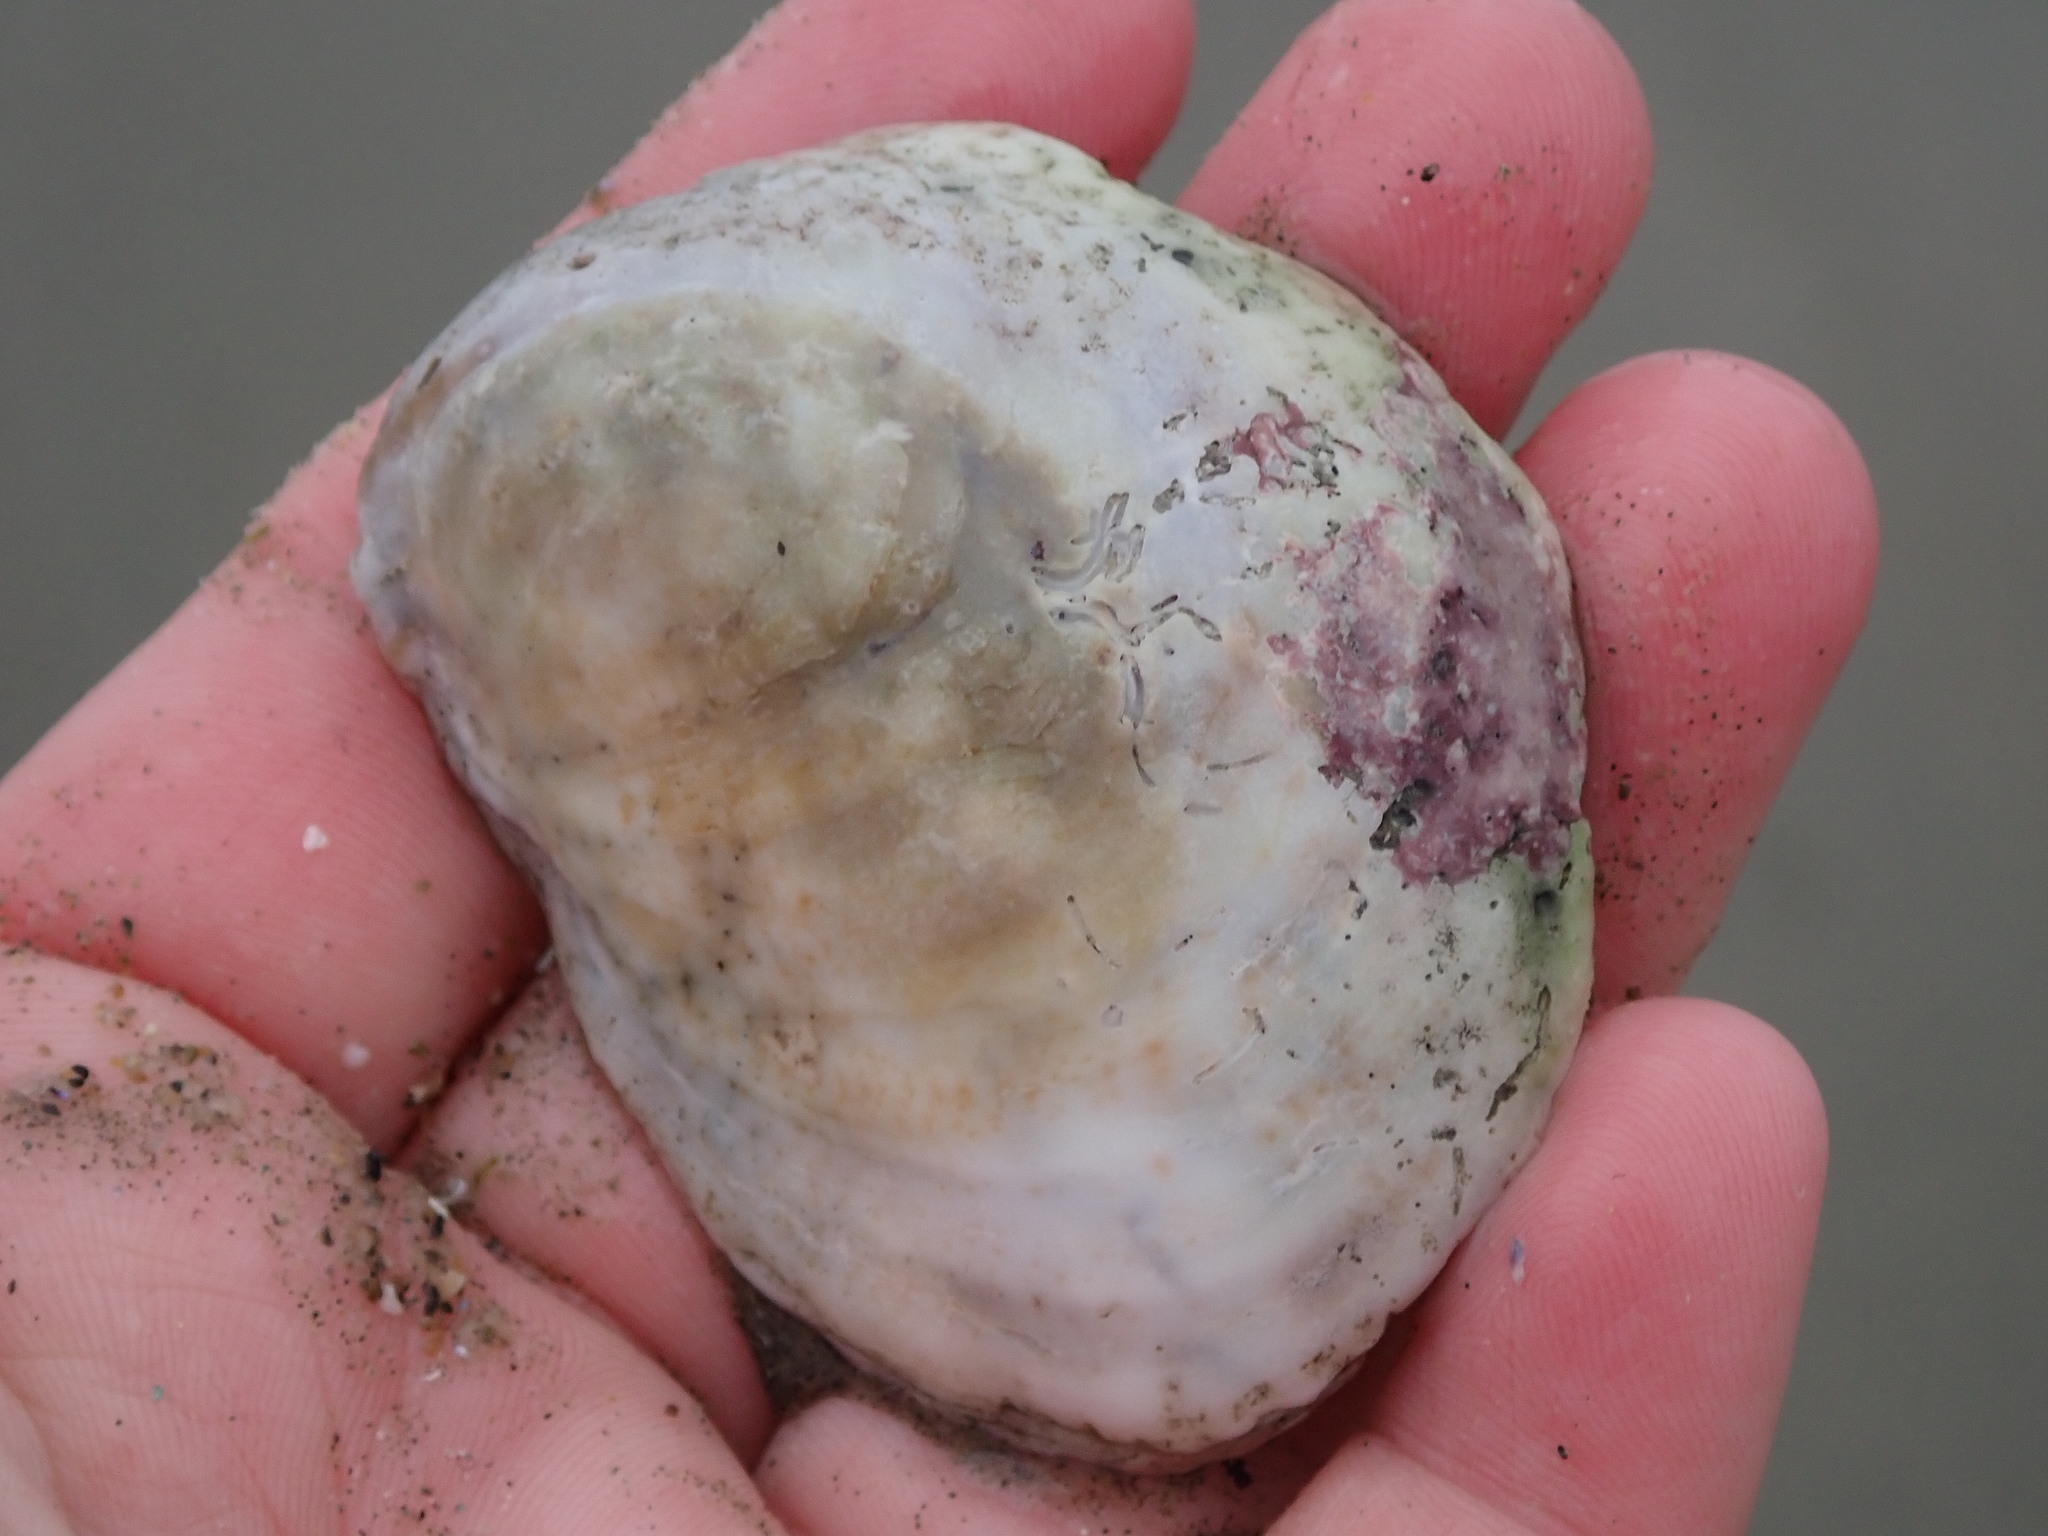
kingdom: Animalia
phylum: Mollusca
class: Gastropoda
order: Littorinimorpha
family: Calyptraeidae
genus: Crepidula
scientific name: Crepidula fornicata
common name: Slipper limpet
